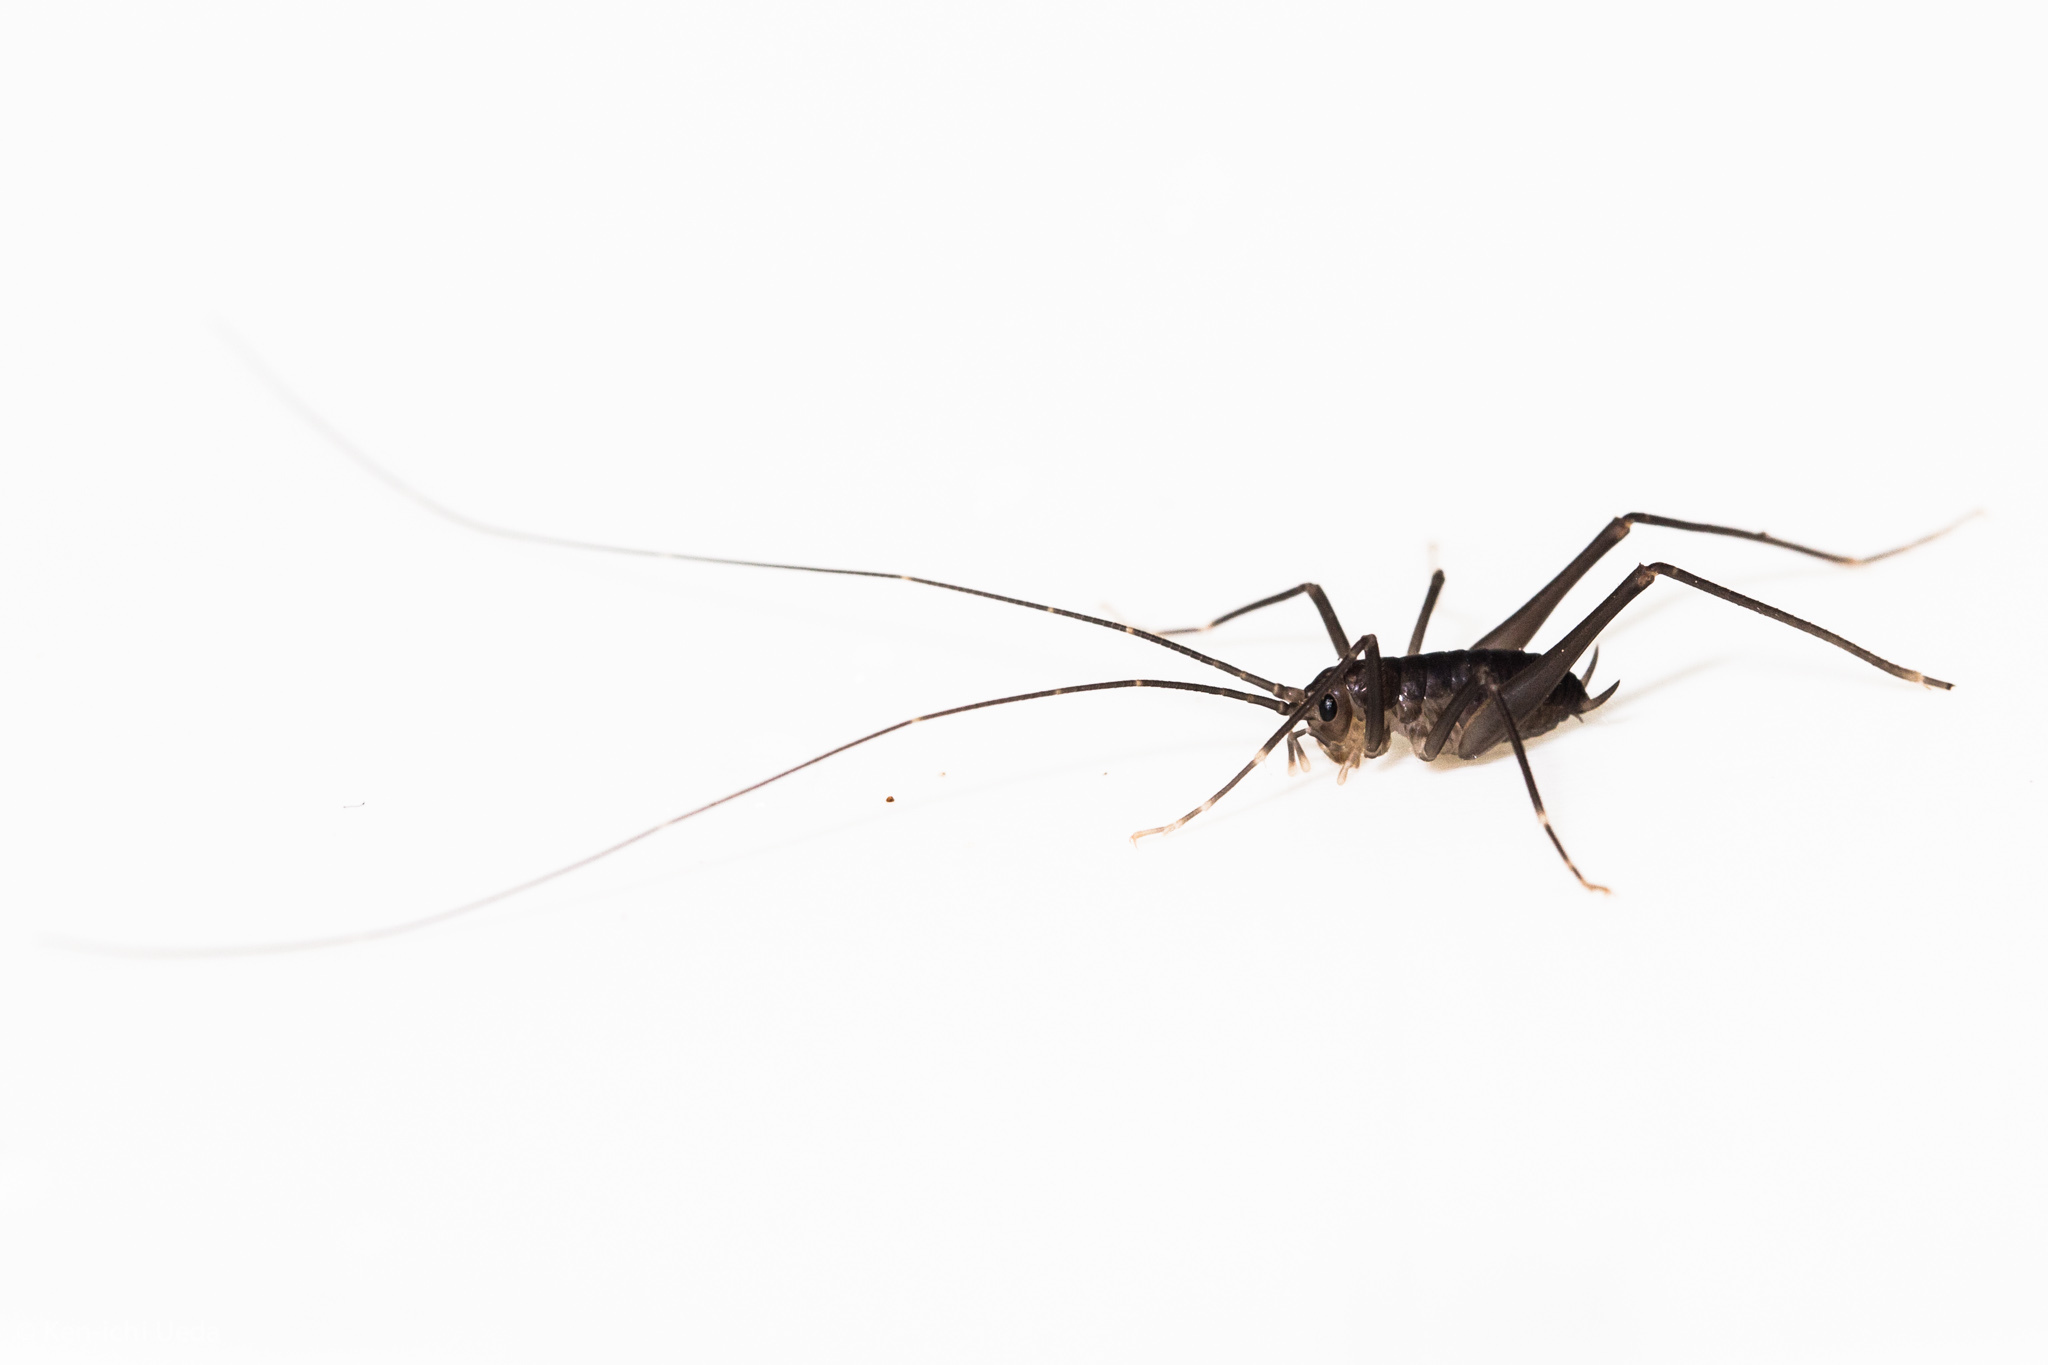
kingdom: Animalia
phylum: Arthropoda
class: Insecta
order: Orthoptera
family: Rhaphidophoridae
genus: Tropidischia
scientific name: Tropidischia xanthostoma
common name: Square-legged camel cricket
